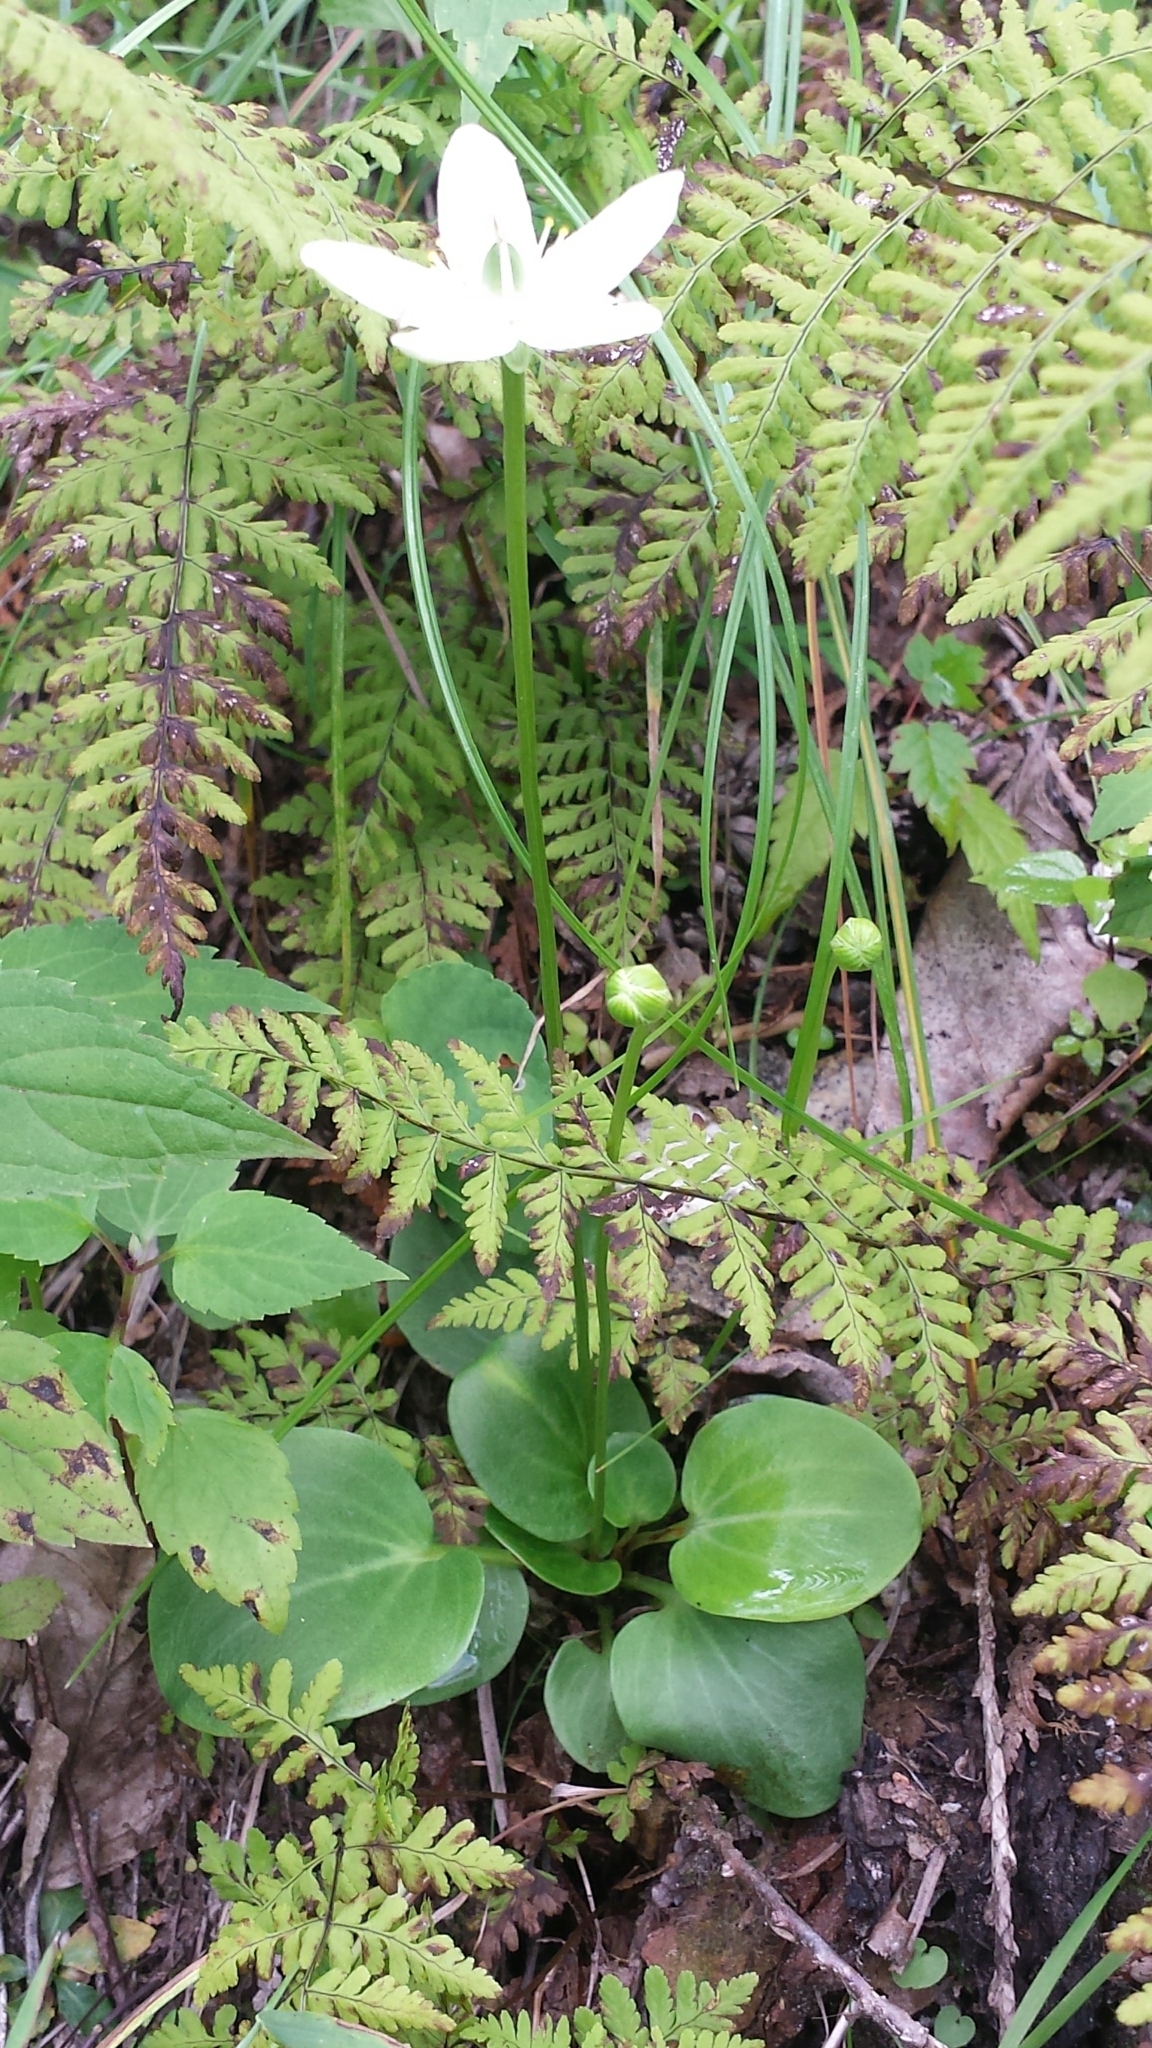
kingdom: Plantae
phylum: Tracheophyta
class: Magnoliopsida
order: Celastrales
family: Parnassiaceae
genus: Parnassia
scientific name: Parnassia glauca
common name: American grass-of-parnassus
